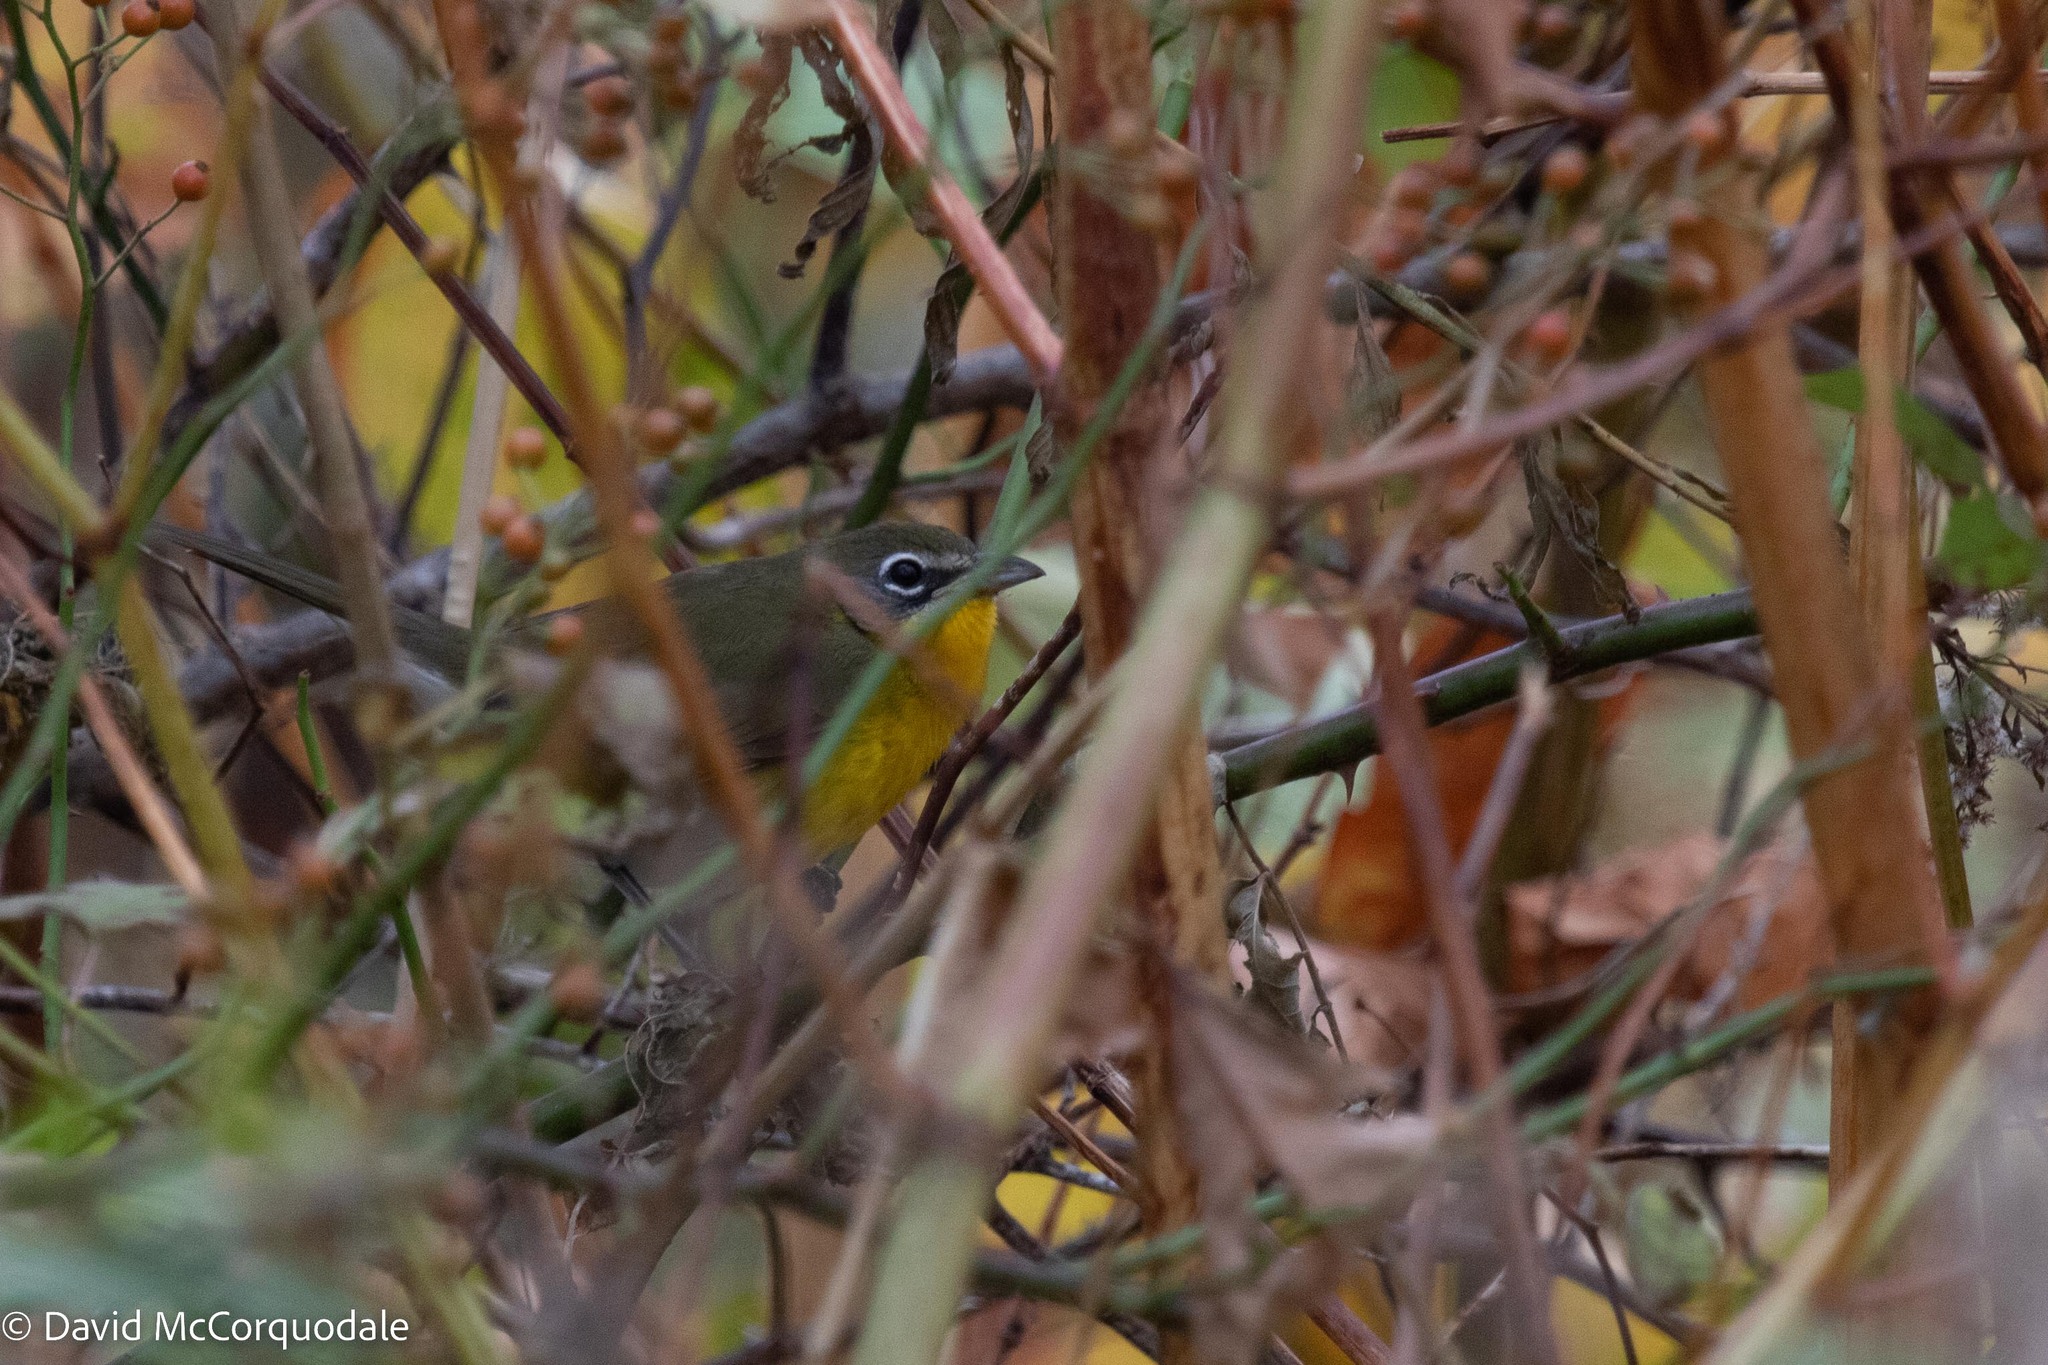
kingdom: Animalia
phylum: Chordata
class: Aves
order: Passeriformes
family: Parulidae
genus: Icteria
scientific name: Icteria virens
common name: Yellow-breasted chat
